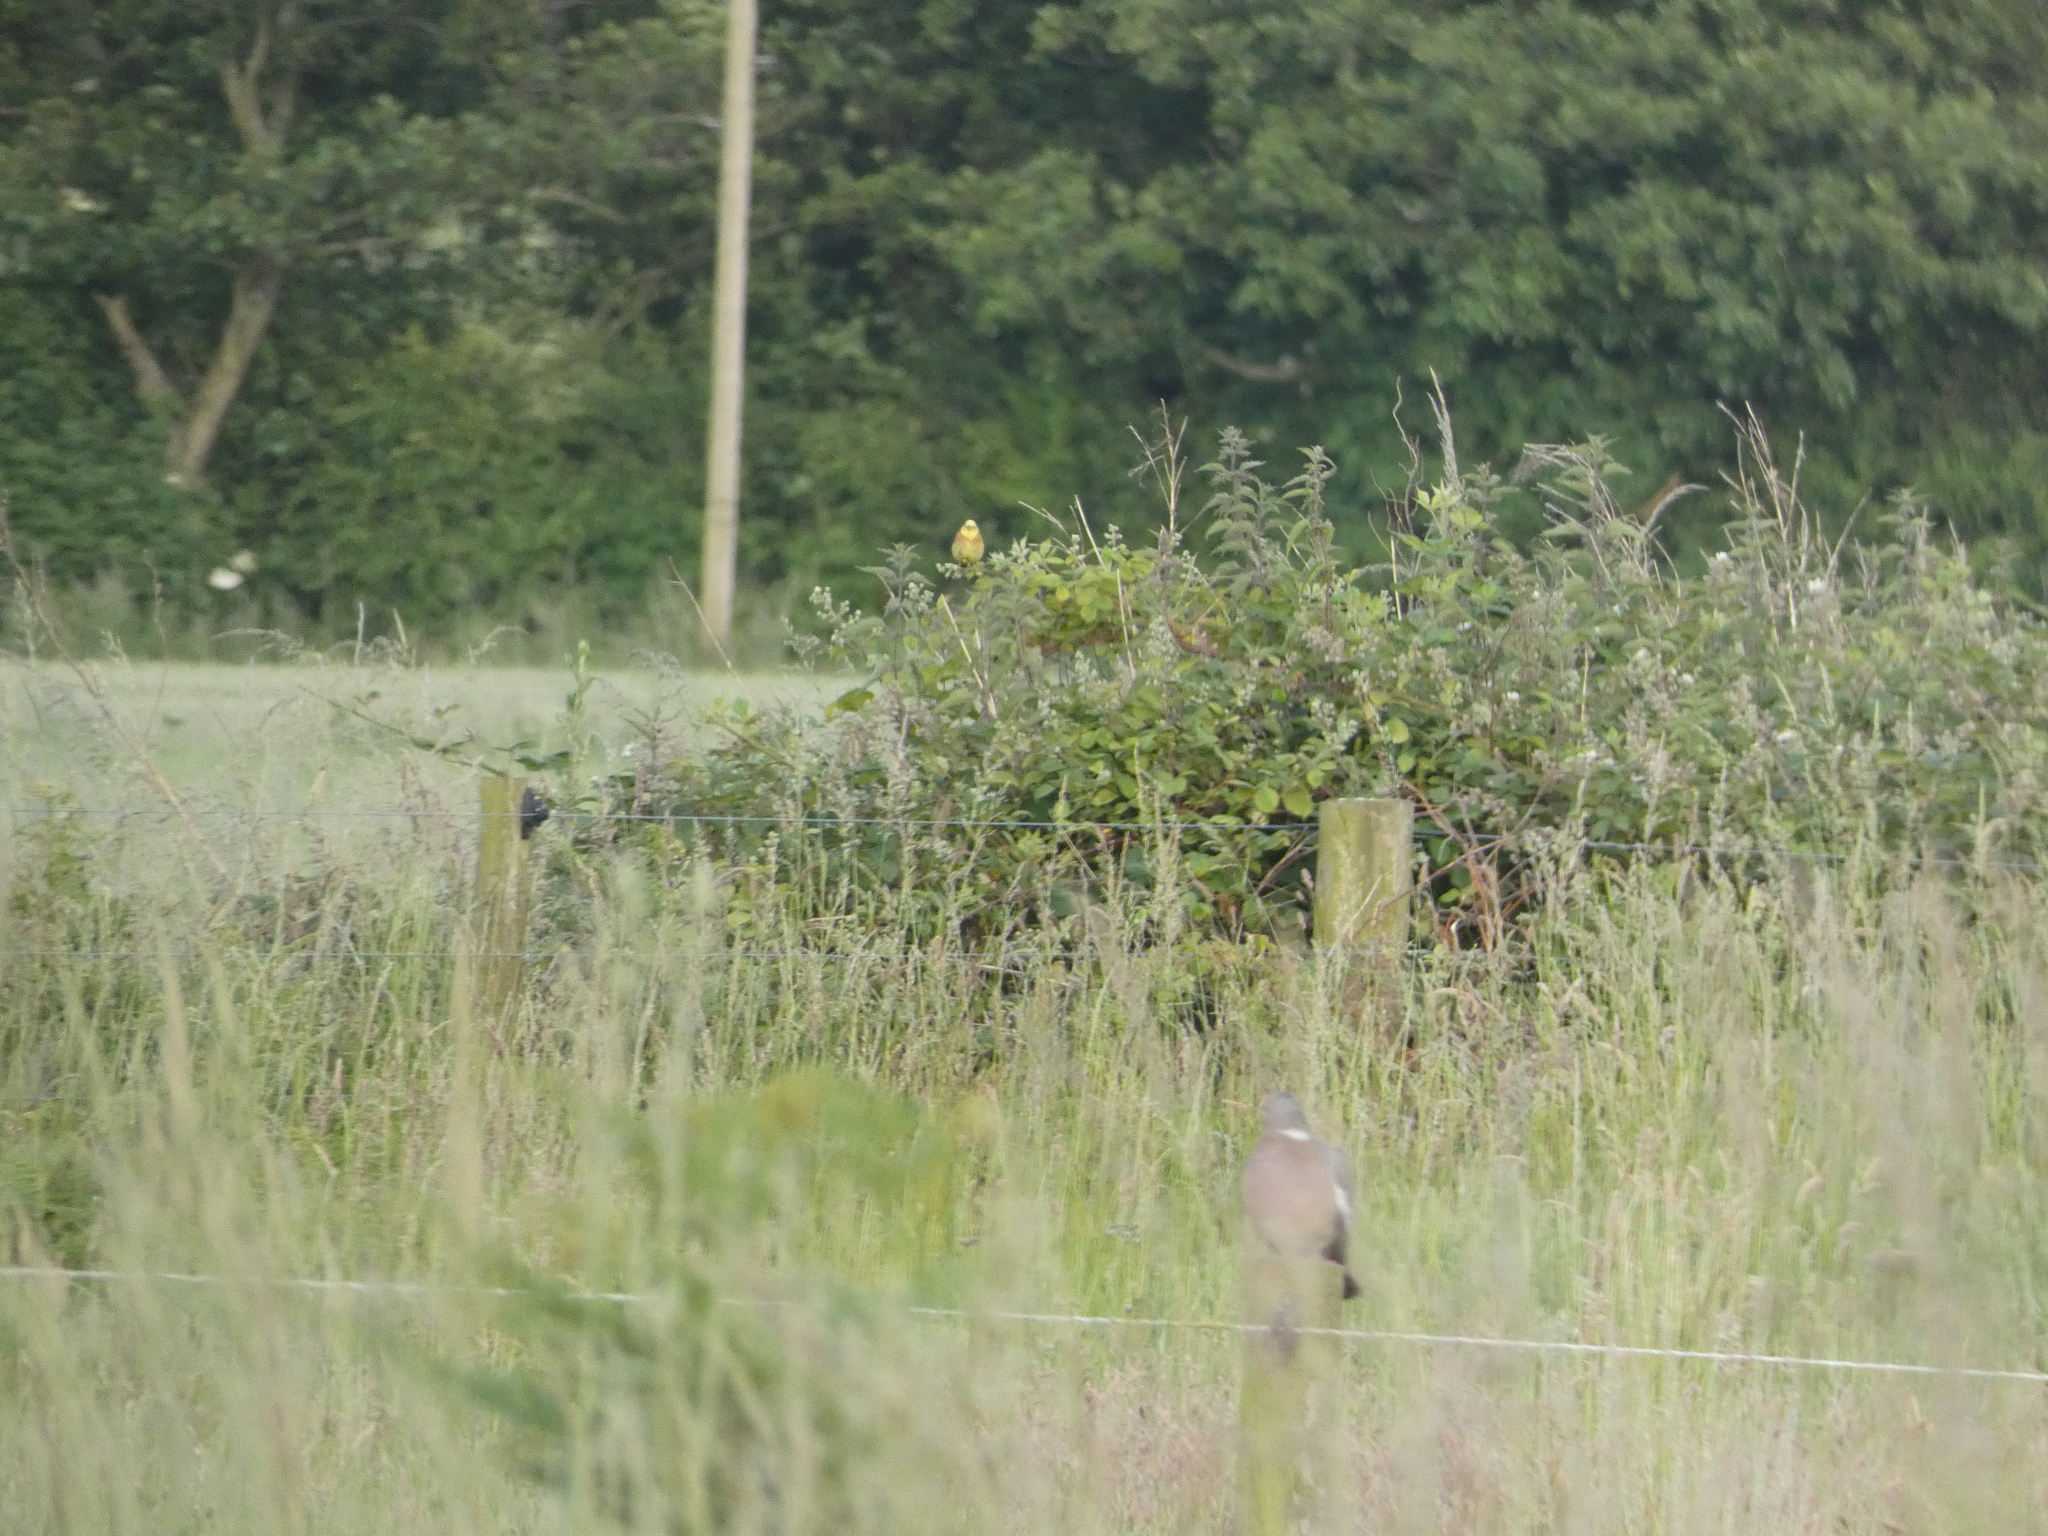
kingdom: Animalia
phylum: Chordata
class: Aves
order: Passeriformes
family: Emberizidae
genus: Emberiza
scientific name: Emberiza citrinella
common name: Yellowhammer
